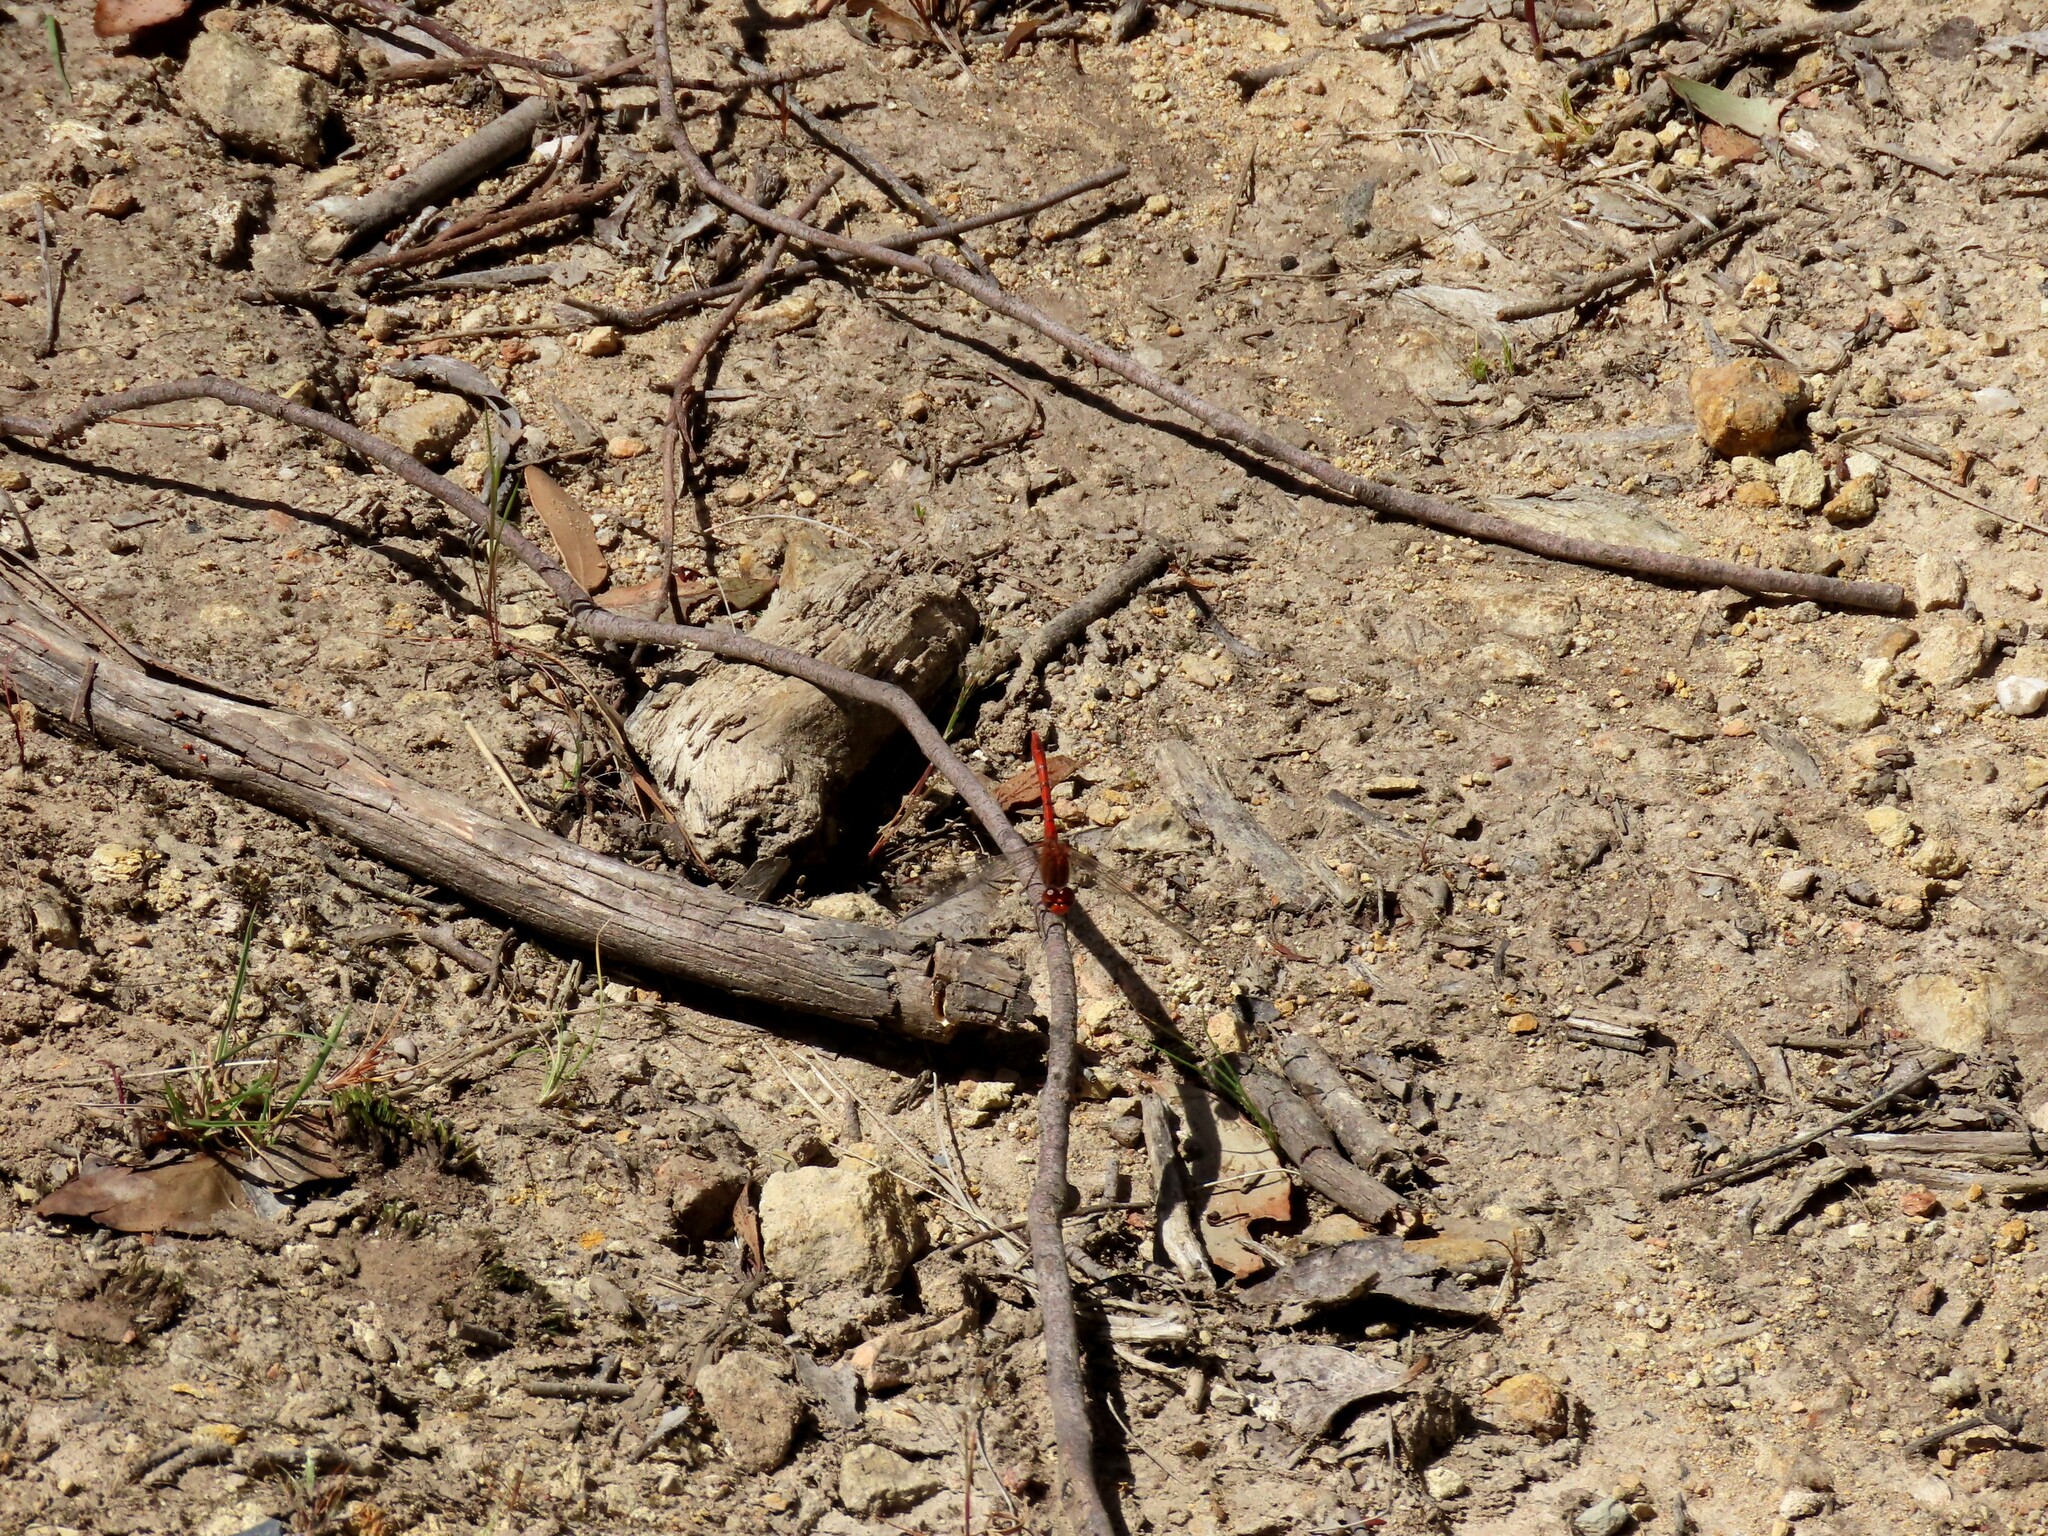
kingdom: Animalia
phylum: Arthropoda
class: Insecta
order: Odonata
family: Libellulidae
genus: Diplacodes
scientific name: Diplacodes bipunctata
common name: Red percher dragonfly
